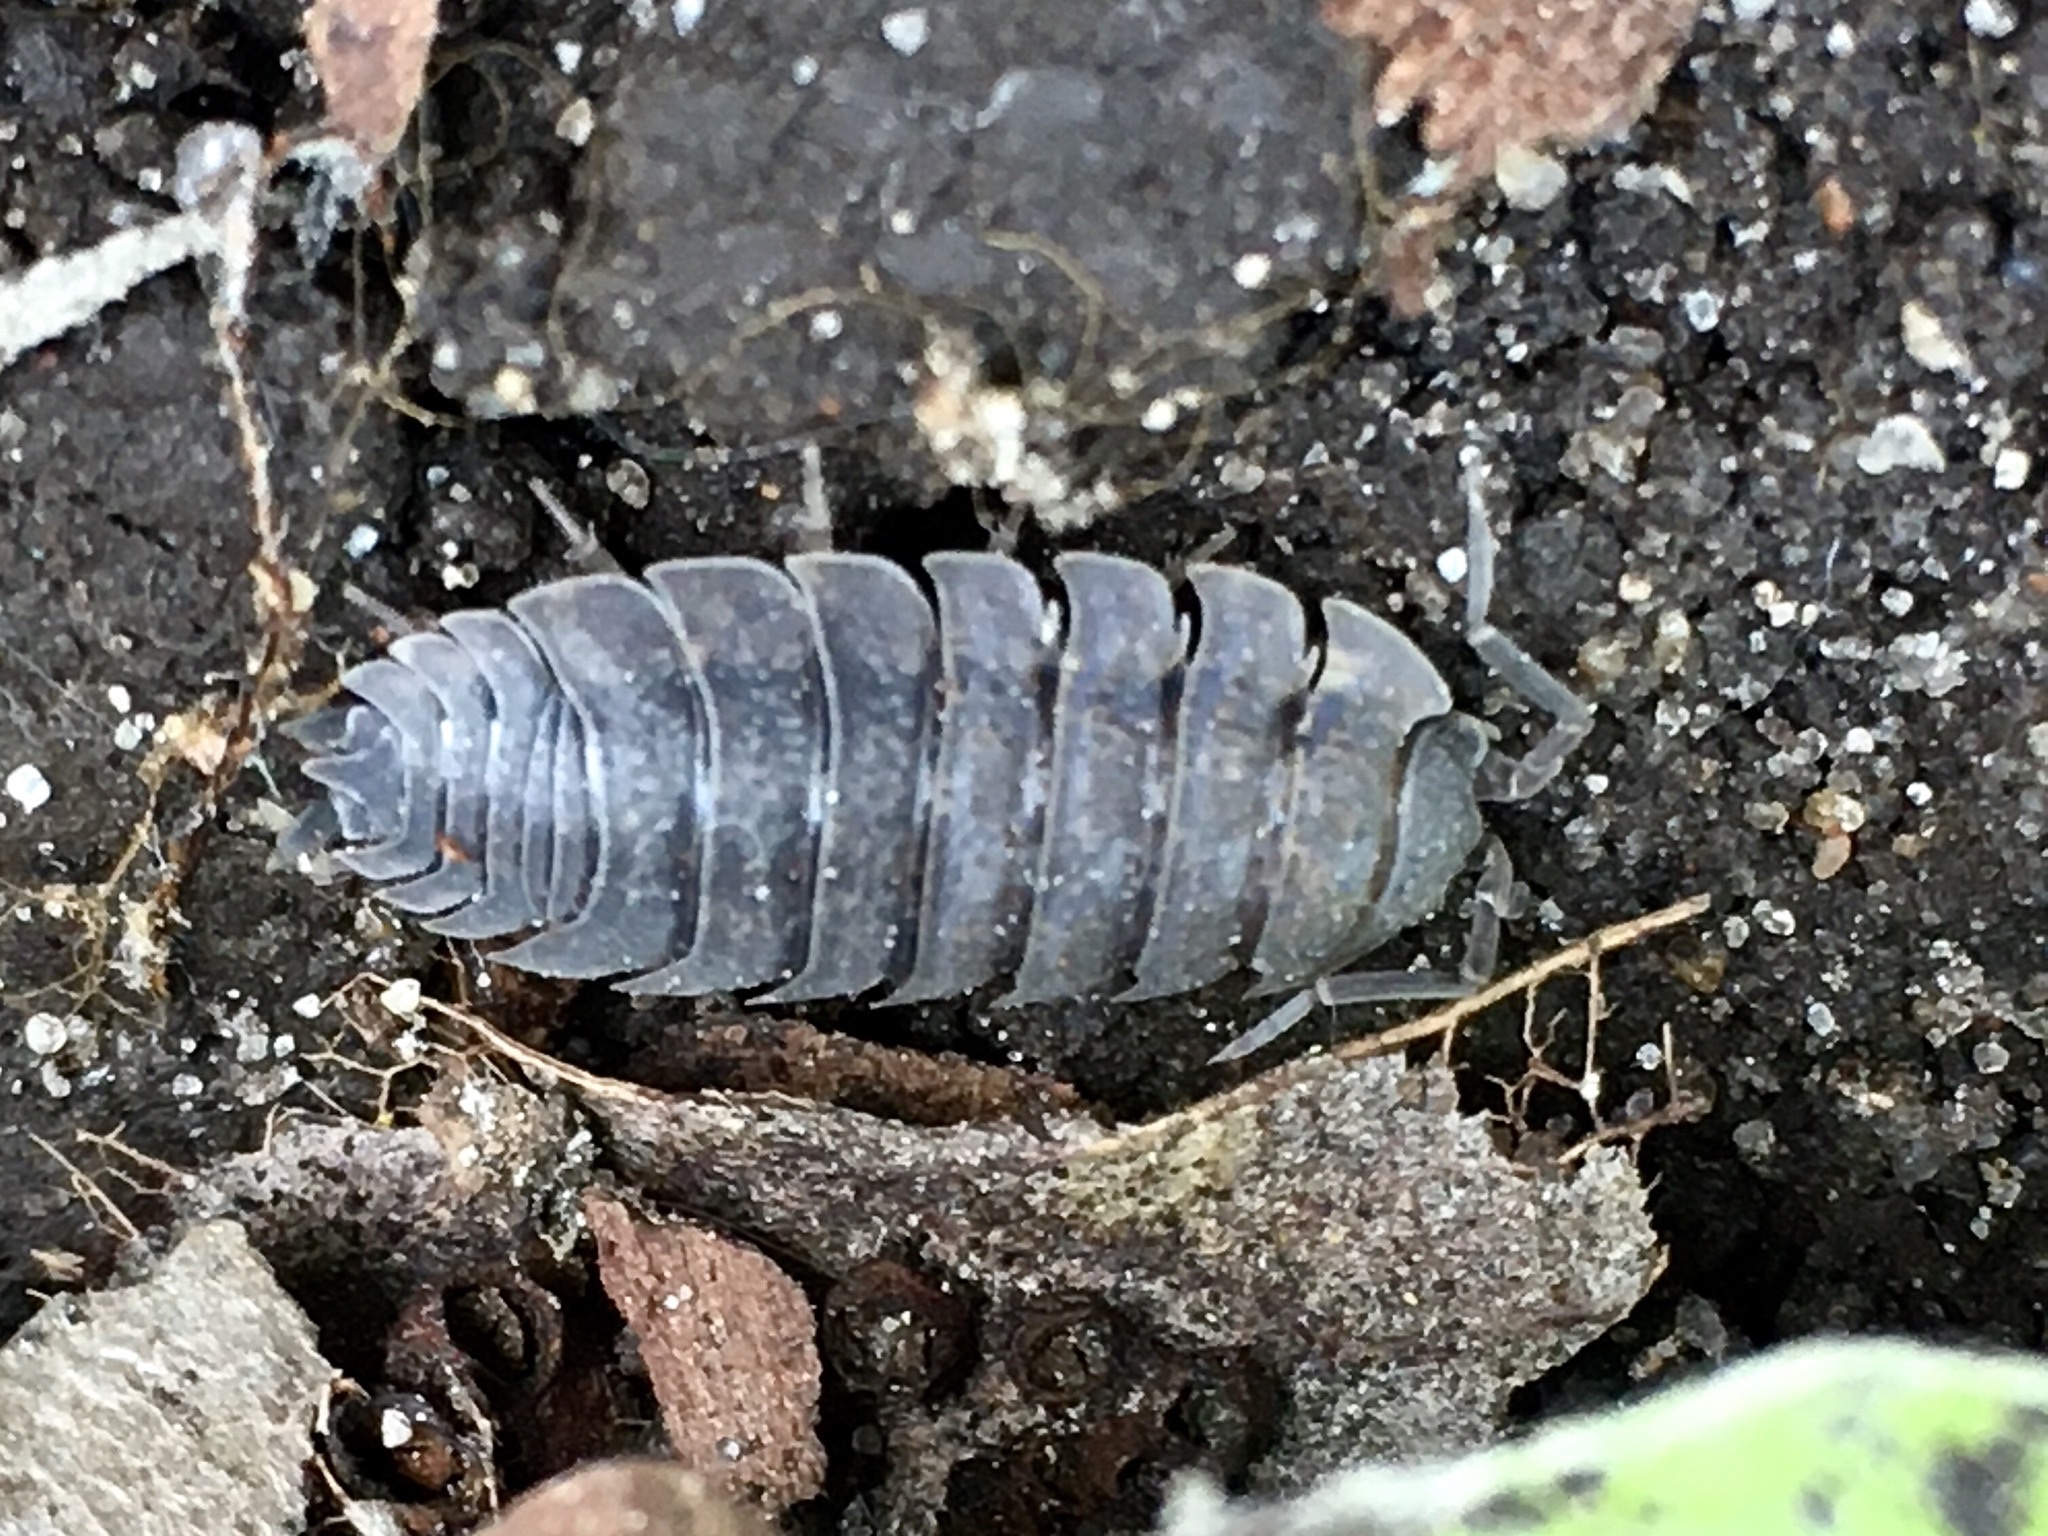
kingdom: Animalia
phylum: Arthropoda
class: Malacostraca
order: Isopoda
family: Porcellionidae
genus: Porcellio
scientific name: Porcellio scaber
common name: Common rough woodlouse
